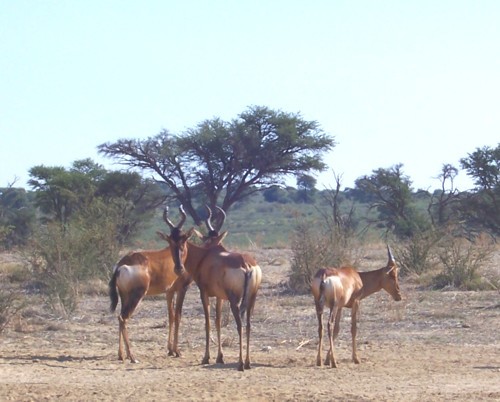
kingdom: Animalia
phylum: Chordata
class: Mammalia
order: Artiodactyla
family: Bovidae
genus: Alcelaphus
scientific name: Alcelaphus caama
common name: Red hartebeest
